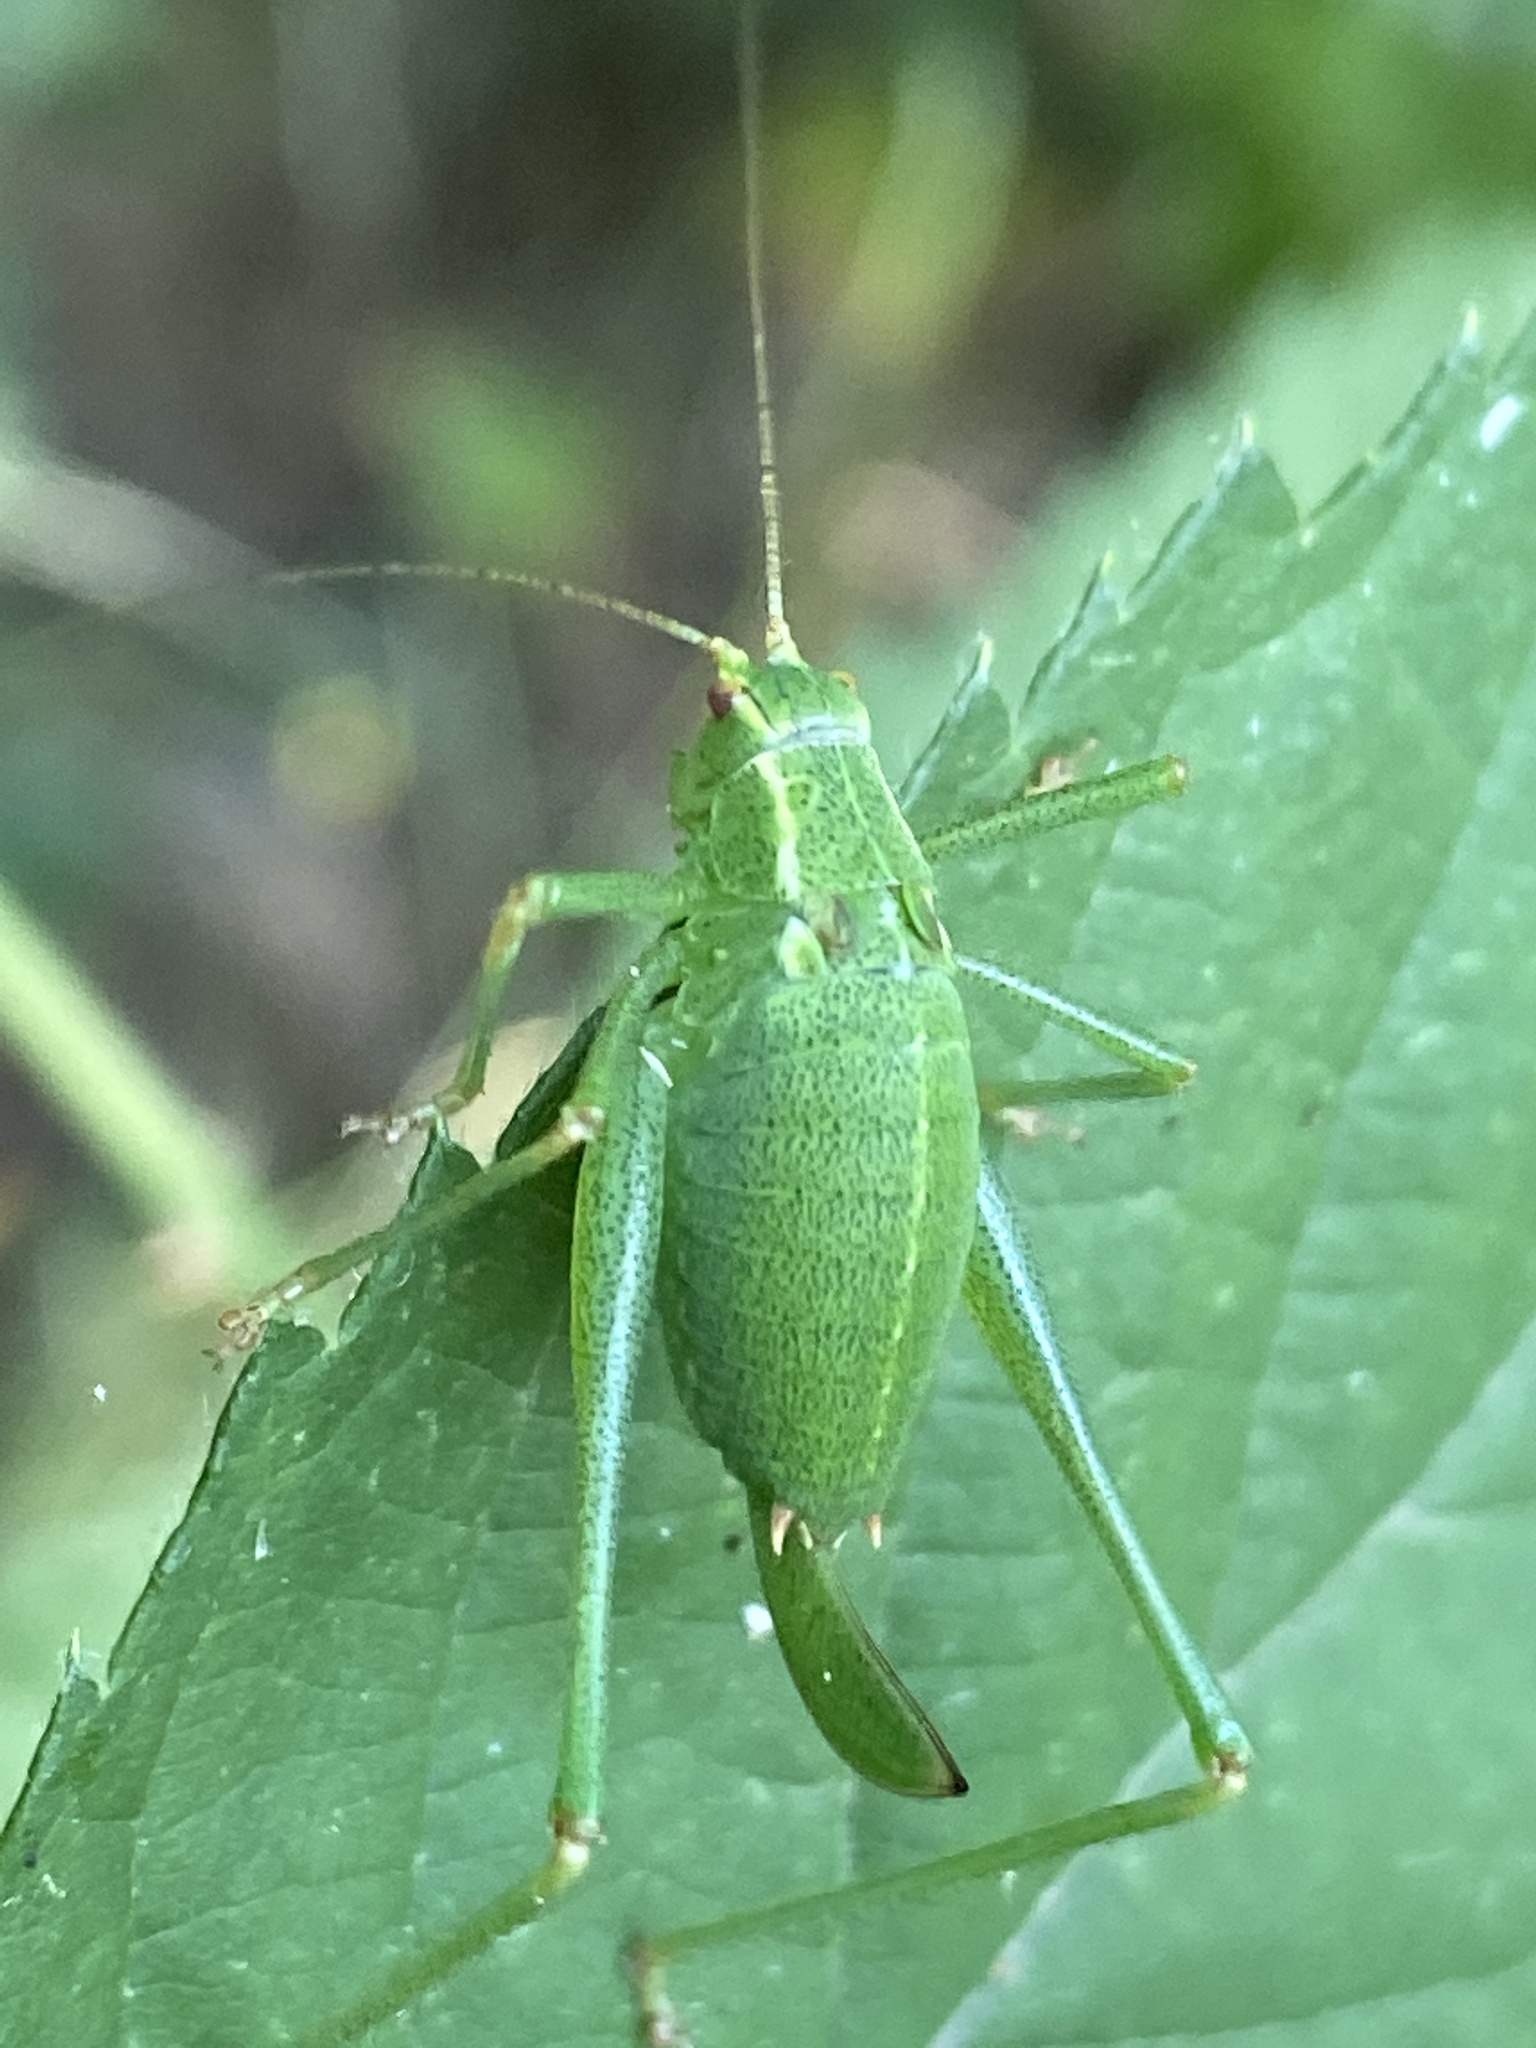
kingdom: Animalia
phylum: Arthropoda
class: Insecta
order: Orthoptera
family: Tettigoniidae
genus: Leptophyes
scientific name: Leptophyes punctatissima
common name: Speckled bush-cricket
